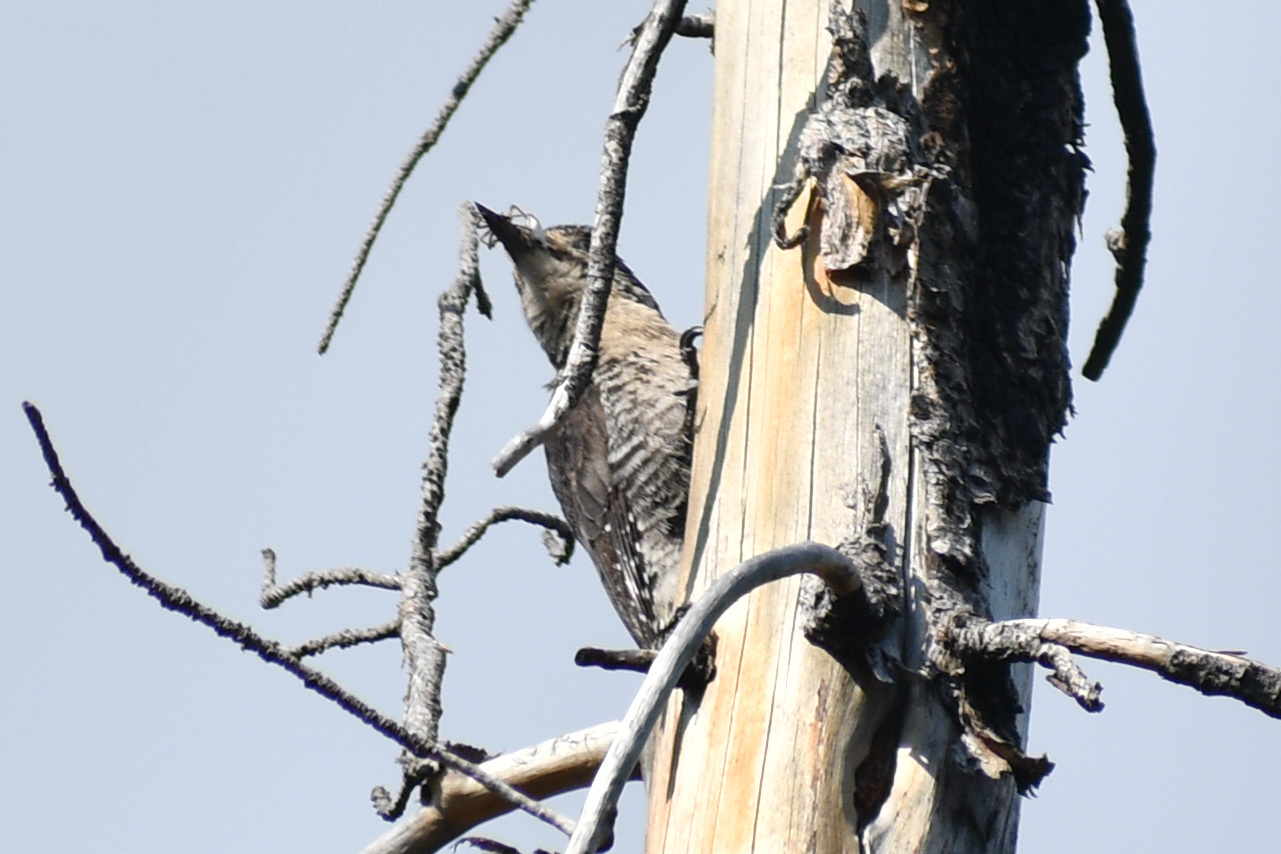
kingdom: Animalia
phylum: Chordata
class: Aves
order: Piciformes
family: Picidae
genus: Picoides
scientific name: Picoides dorsalis
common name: American three-toed woodpecker
